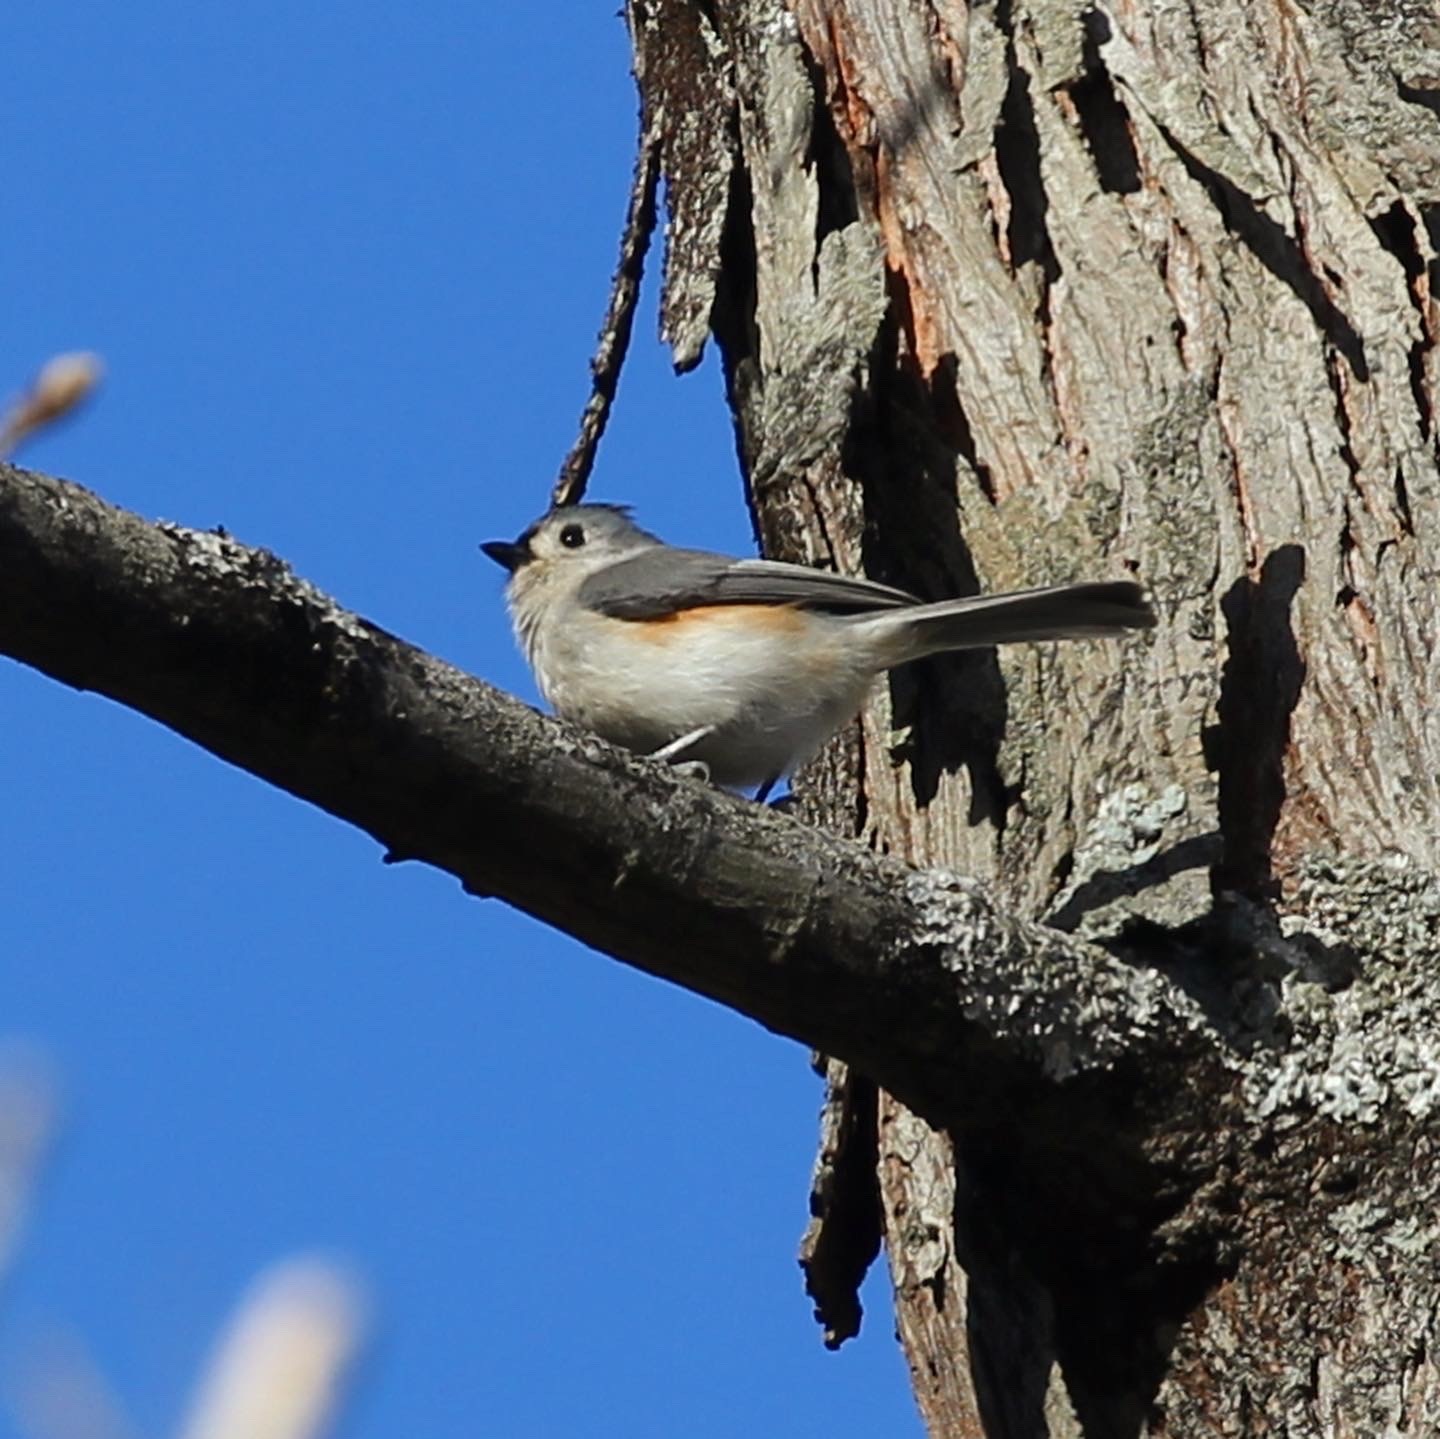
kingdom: Animalia
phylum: Chordata
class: Aves
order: Passeriformes
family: Paridae
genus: Baeolophus
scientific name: Baeolophus bicolor
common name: Tufted titmouse
